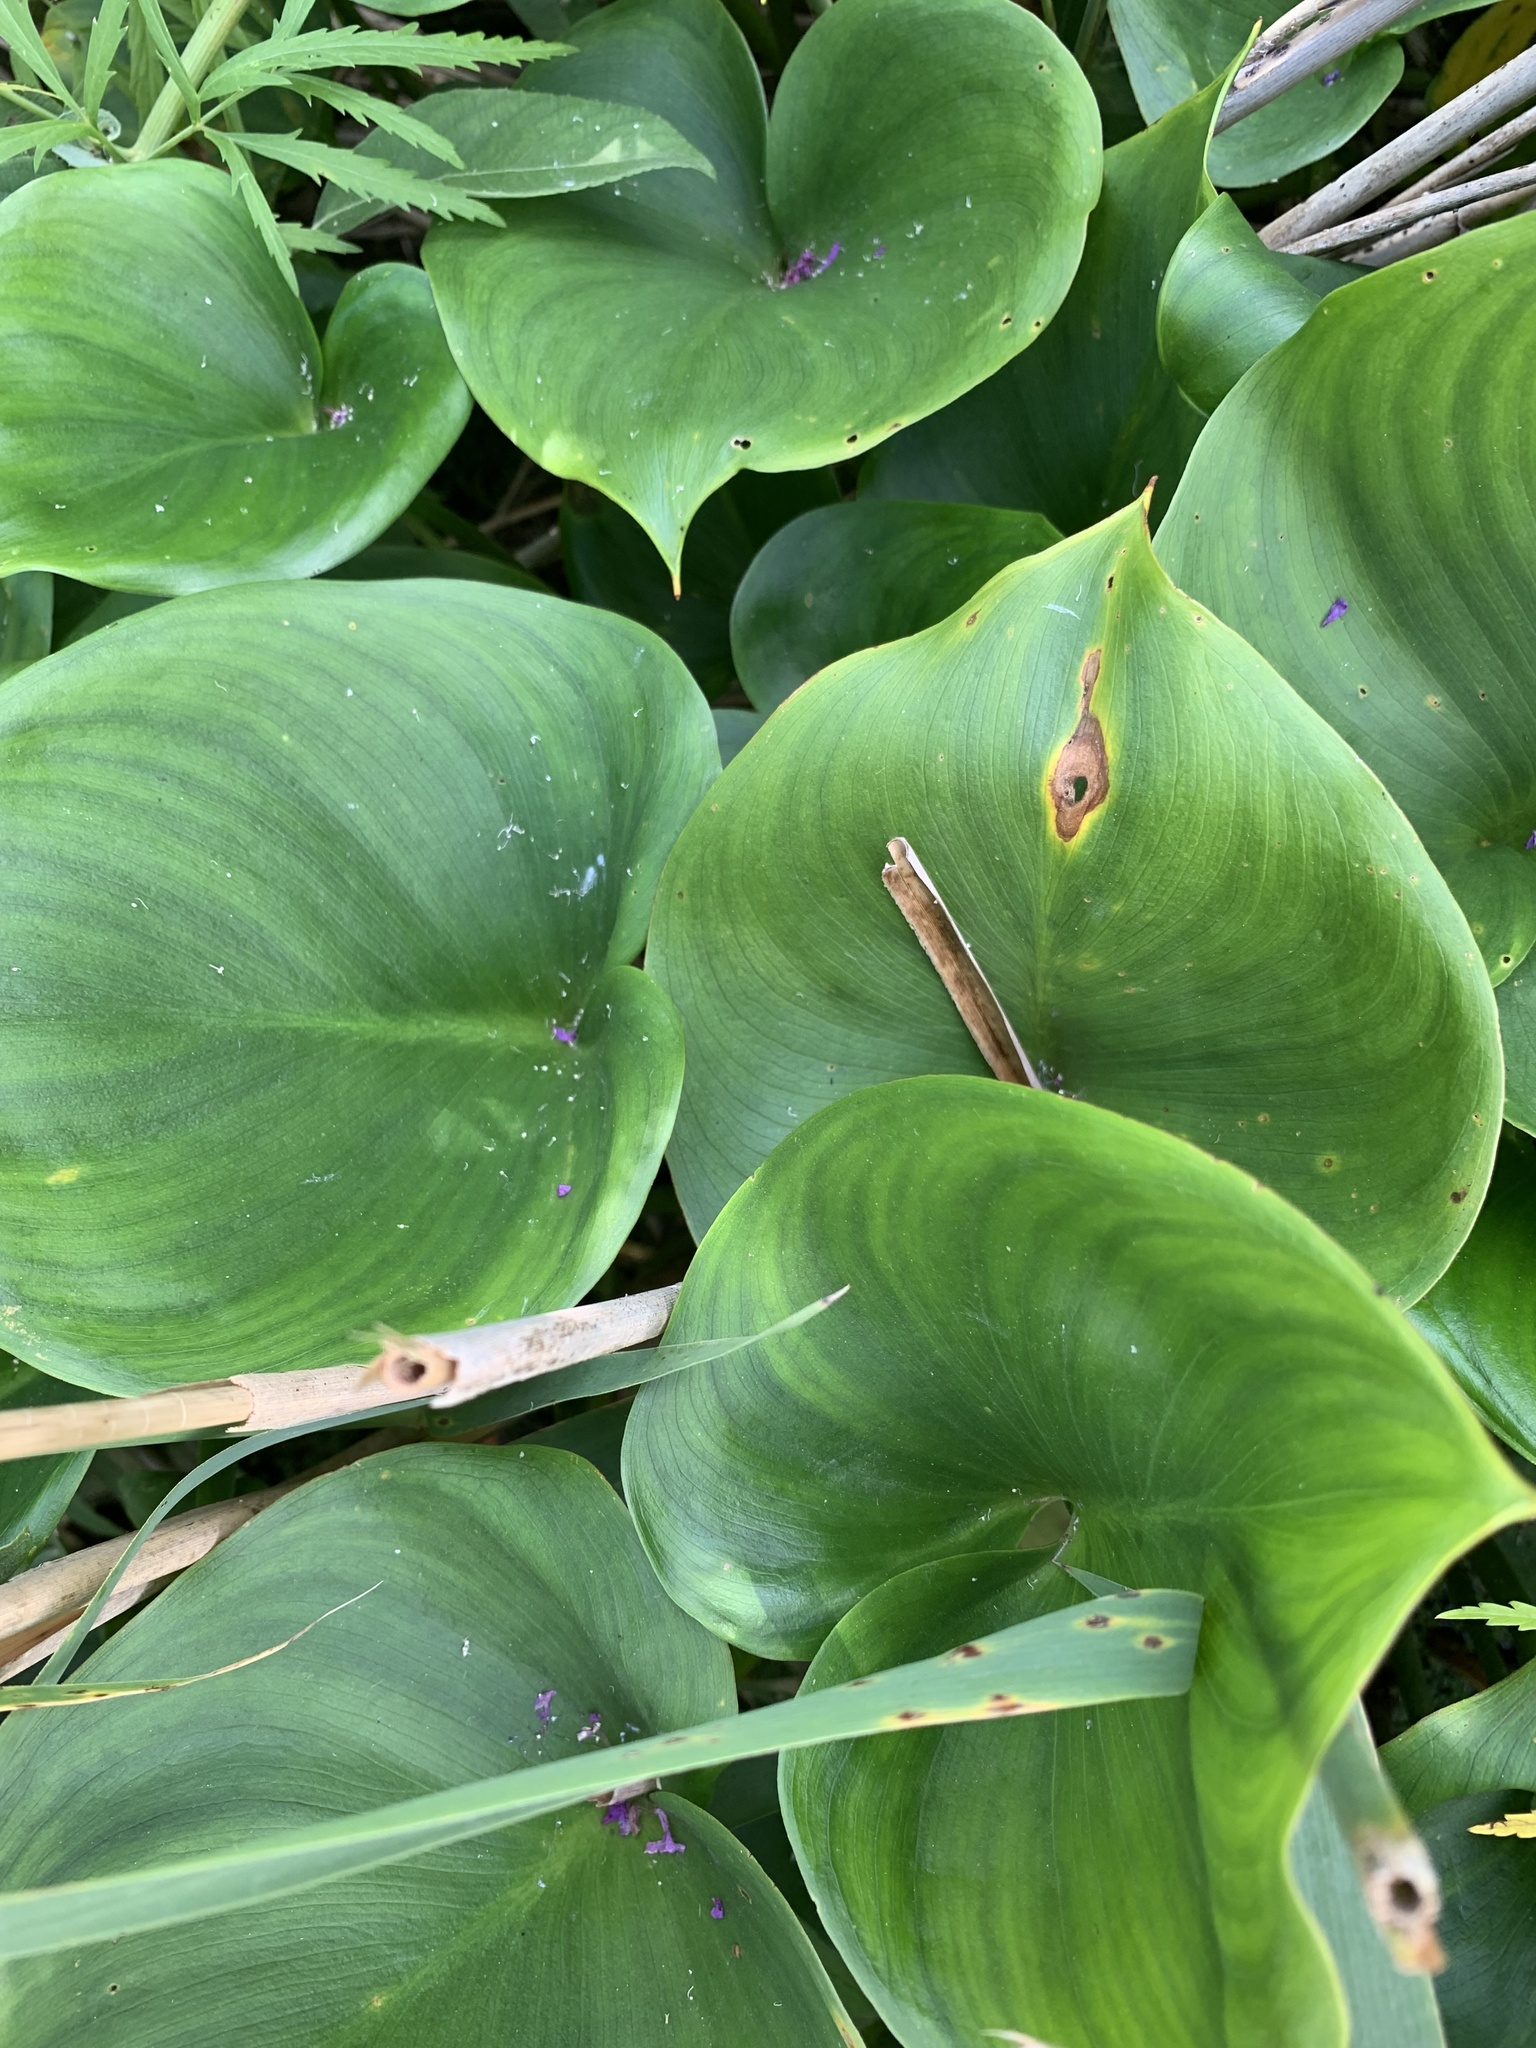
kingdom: Plantae
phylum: Tracheophyta
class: Liliopsida
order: Alismatales
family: Araceae
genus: Calla
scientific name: Calla palustris
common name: Bog arum
